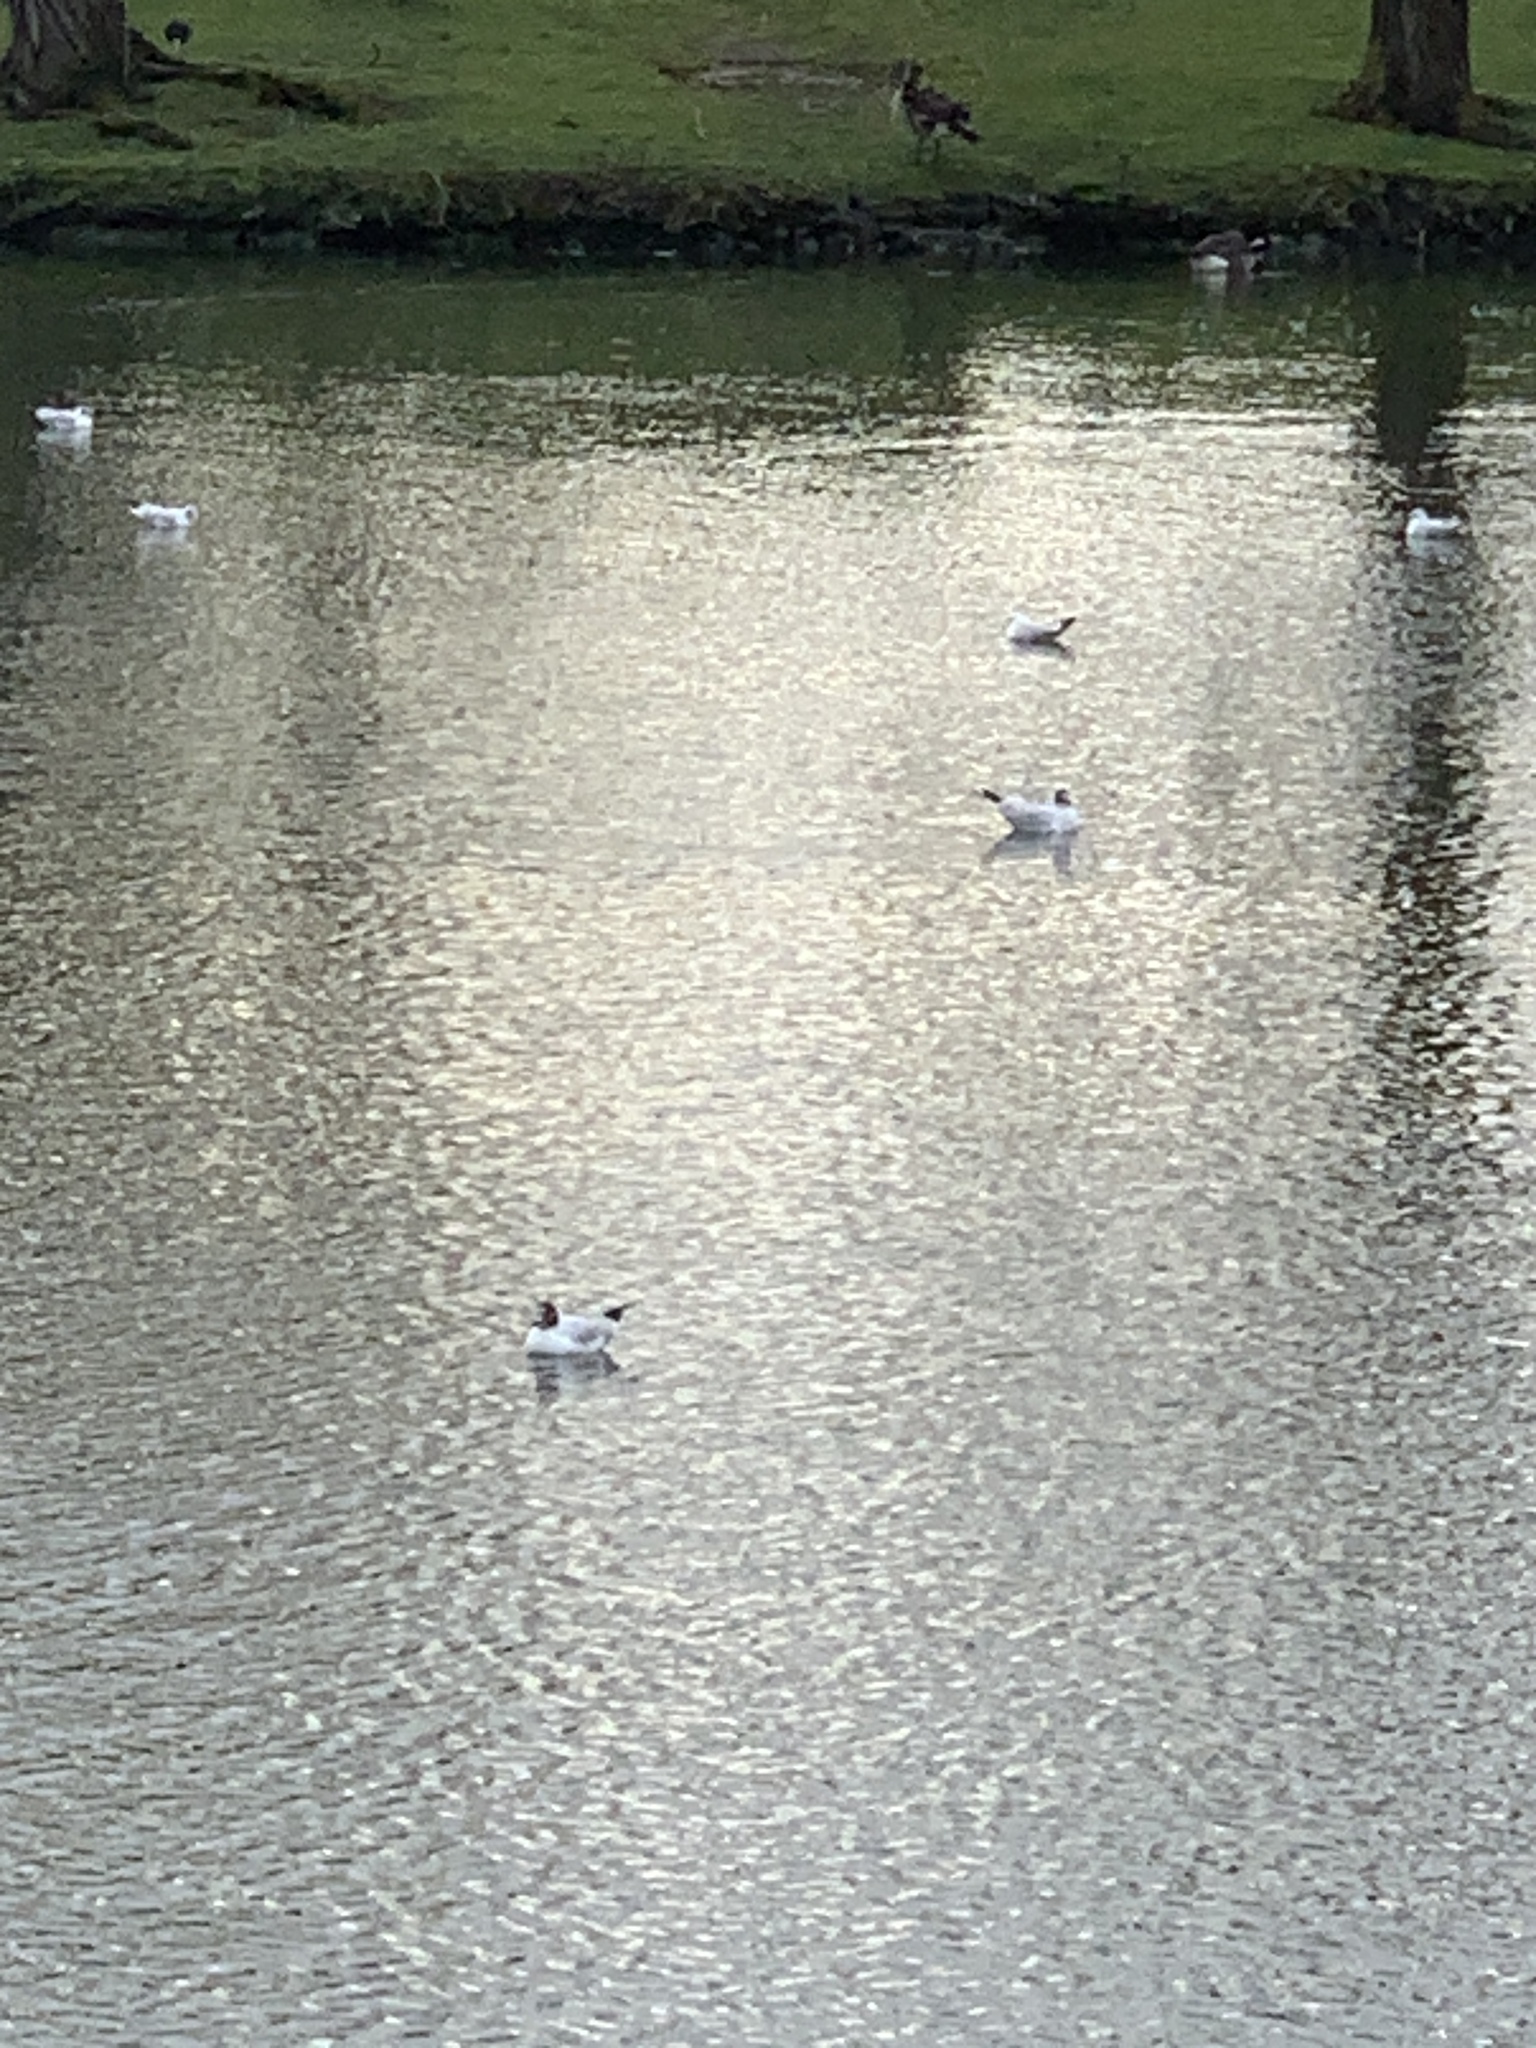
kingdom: Animalia
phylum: Chordata
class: Aves
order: Charadriiformes
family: Laridae
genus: Chroicocephalus
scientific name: Chroicocephalus ridibundus
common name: Black-headed gull
